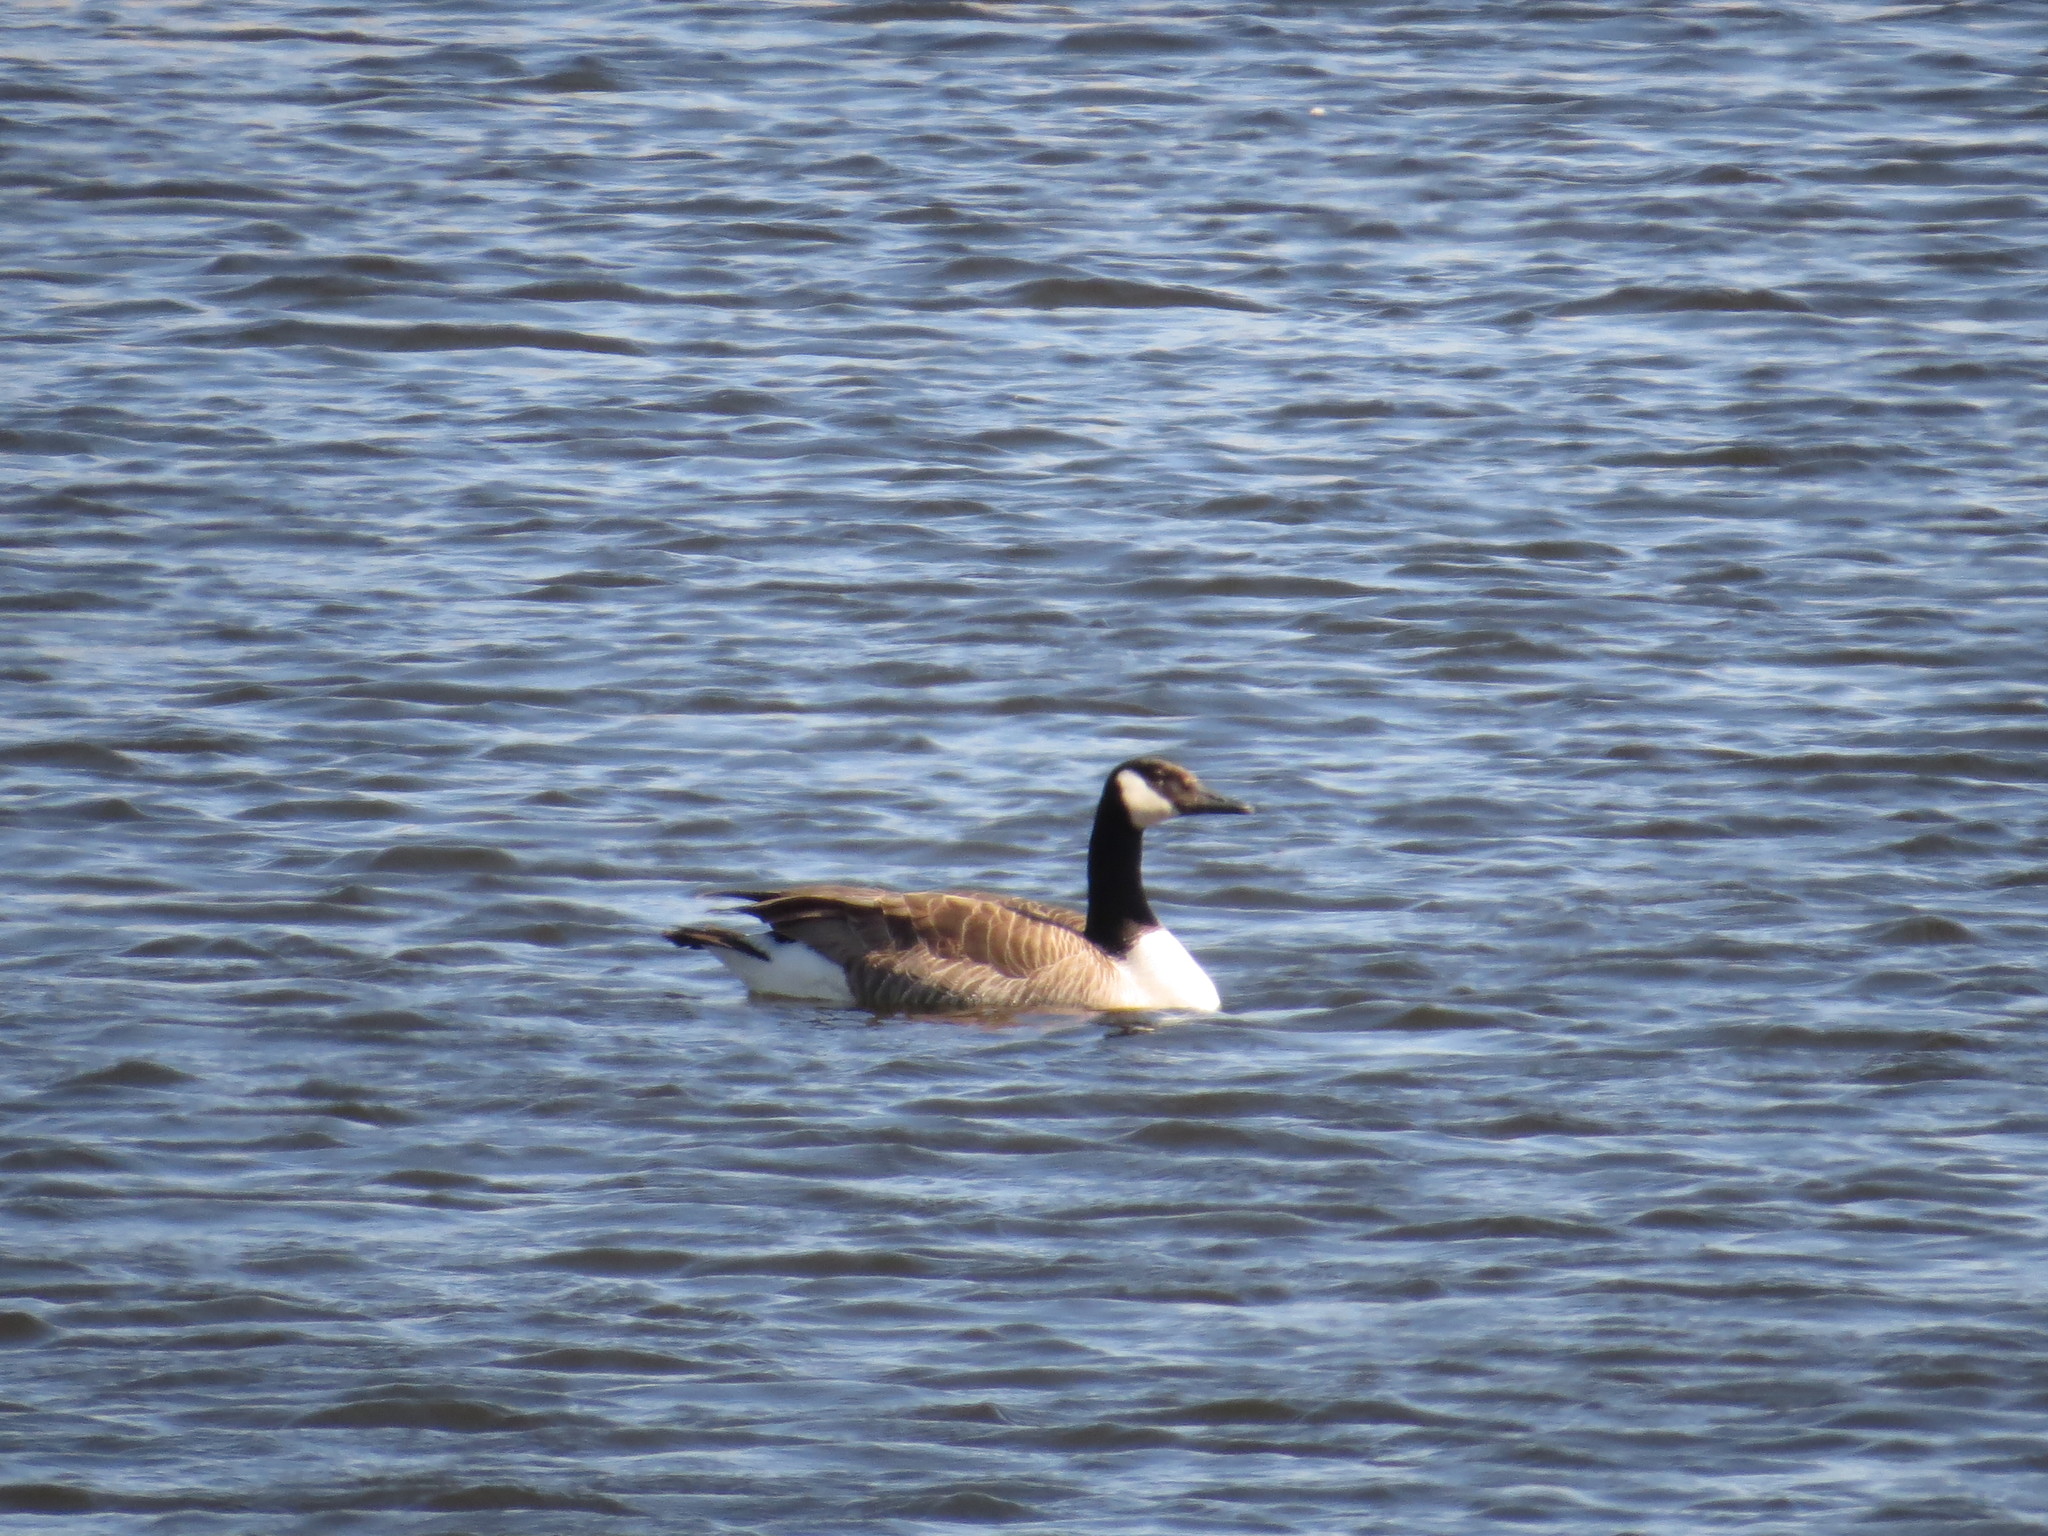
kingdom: Animalia
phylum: Chordata
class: Aves
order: Anseriformes
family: Anatidae
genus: Branta
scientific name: Branta canadensis
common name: Canada goose
